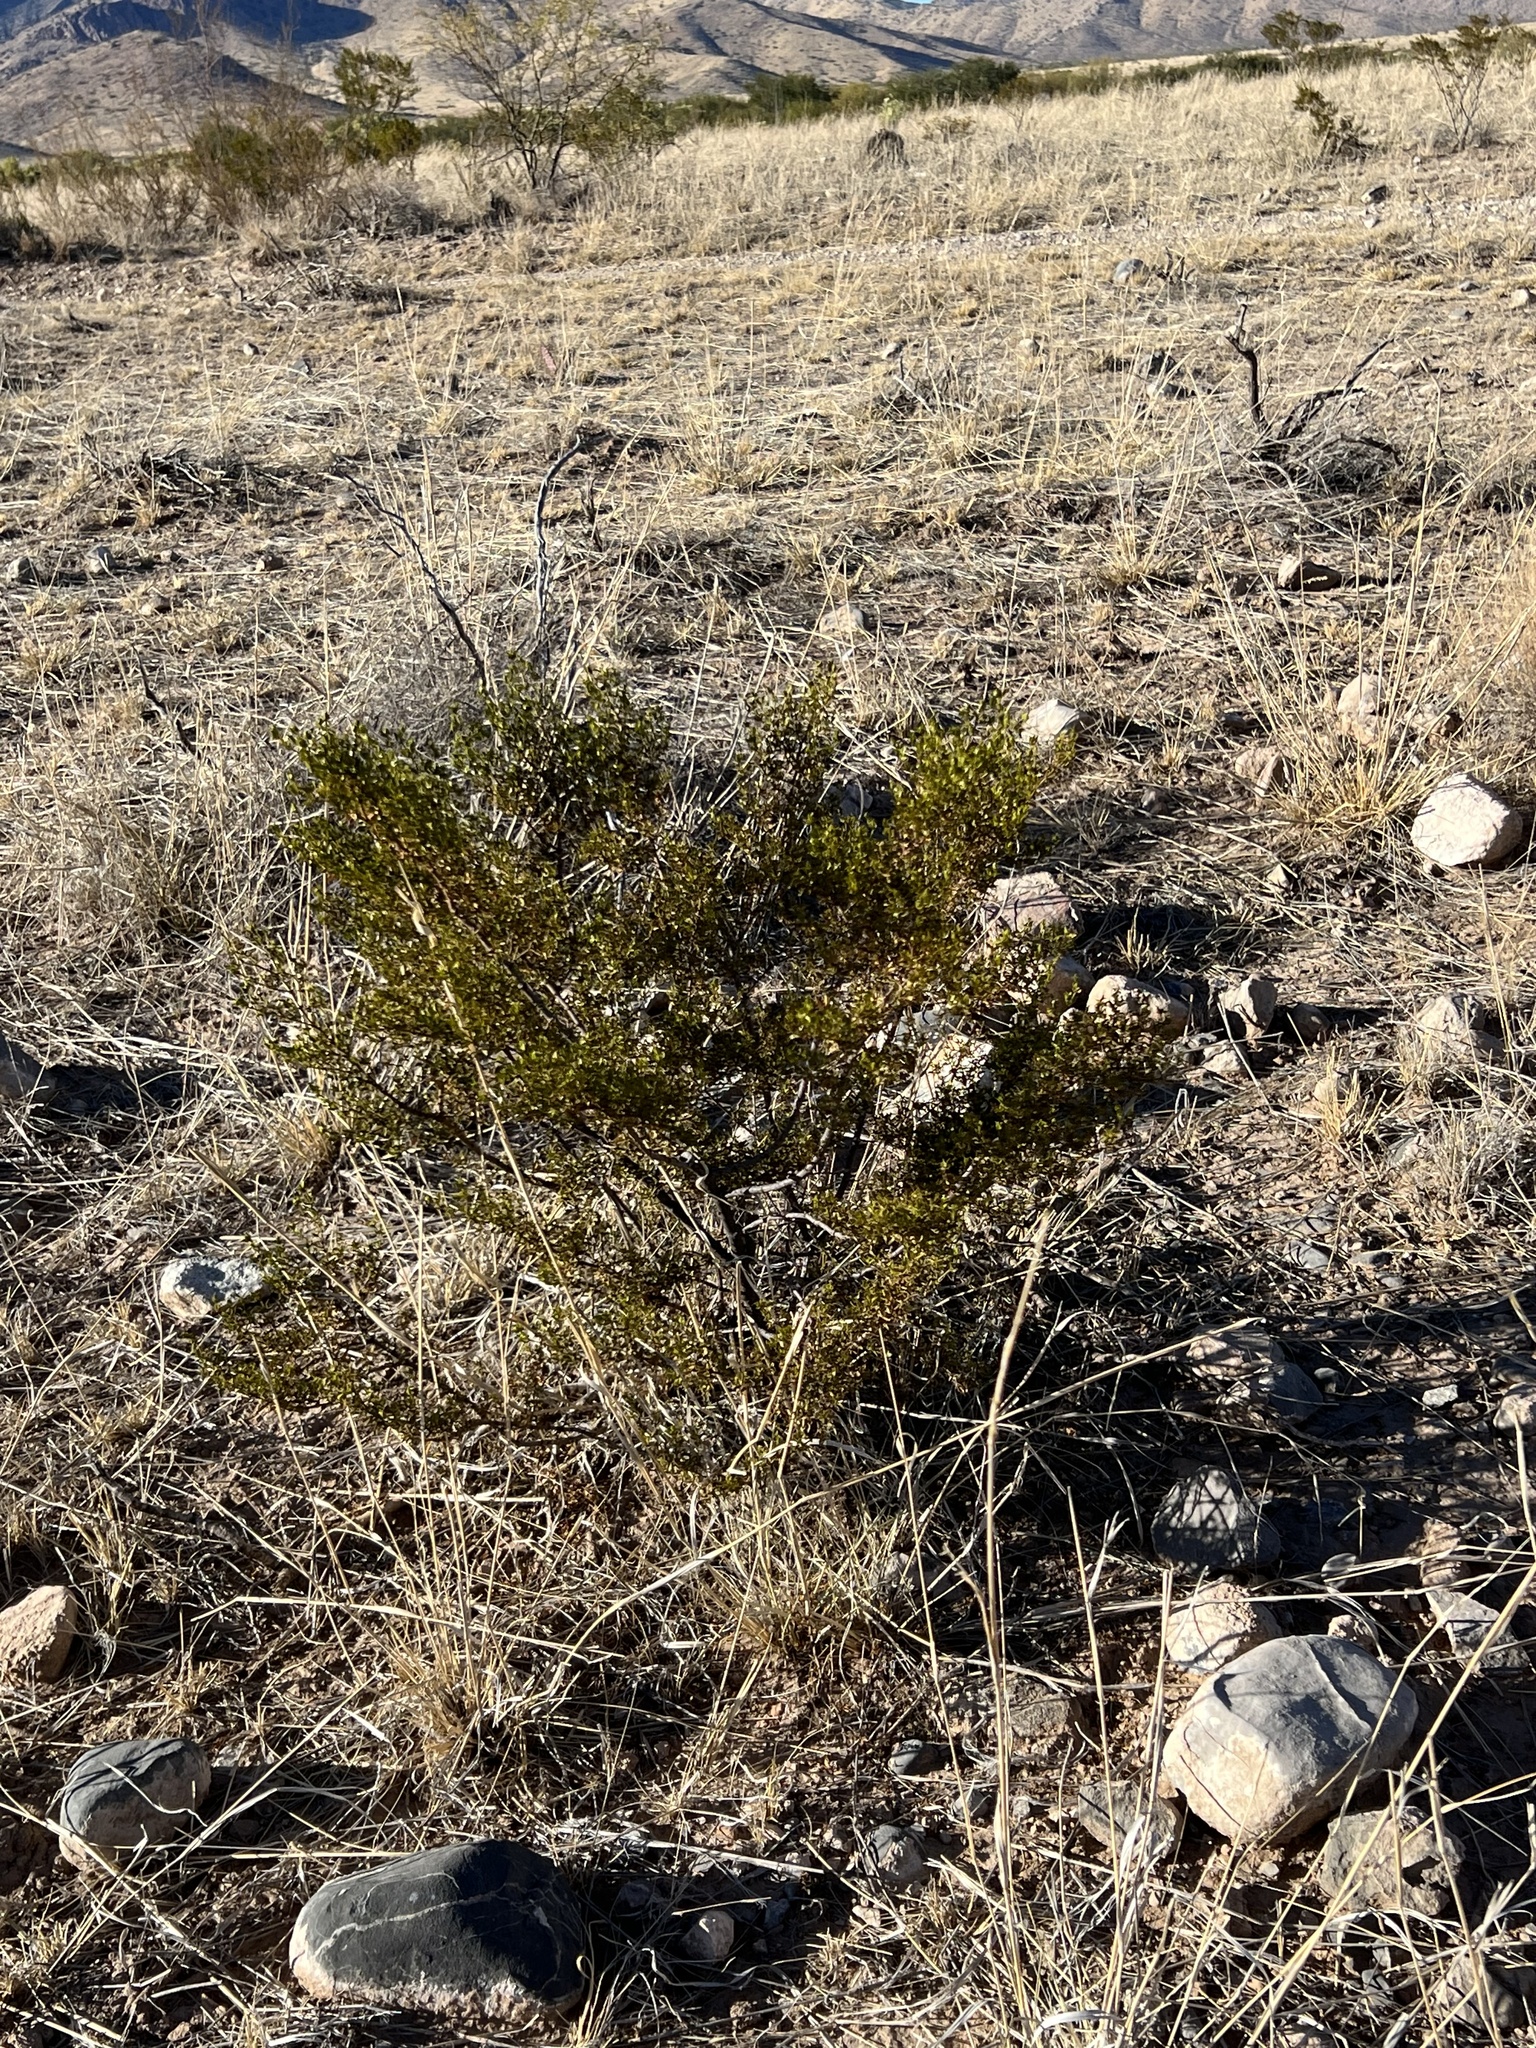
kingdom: Plantae
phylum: Tracheophyta
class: Magnoliopsida
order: Zygophyllales
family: Zygophyllaceae
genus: Larrea
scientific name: Larrea tridentata
